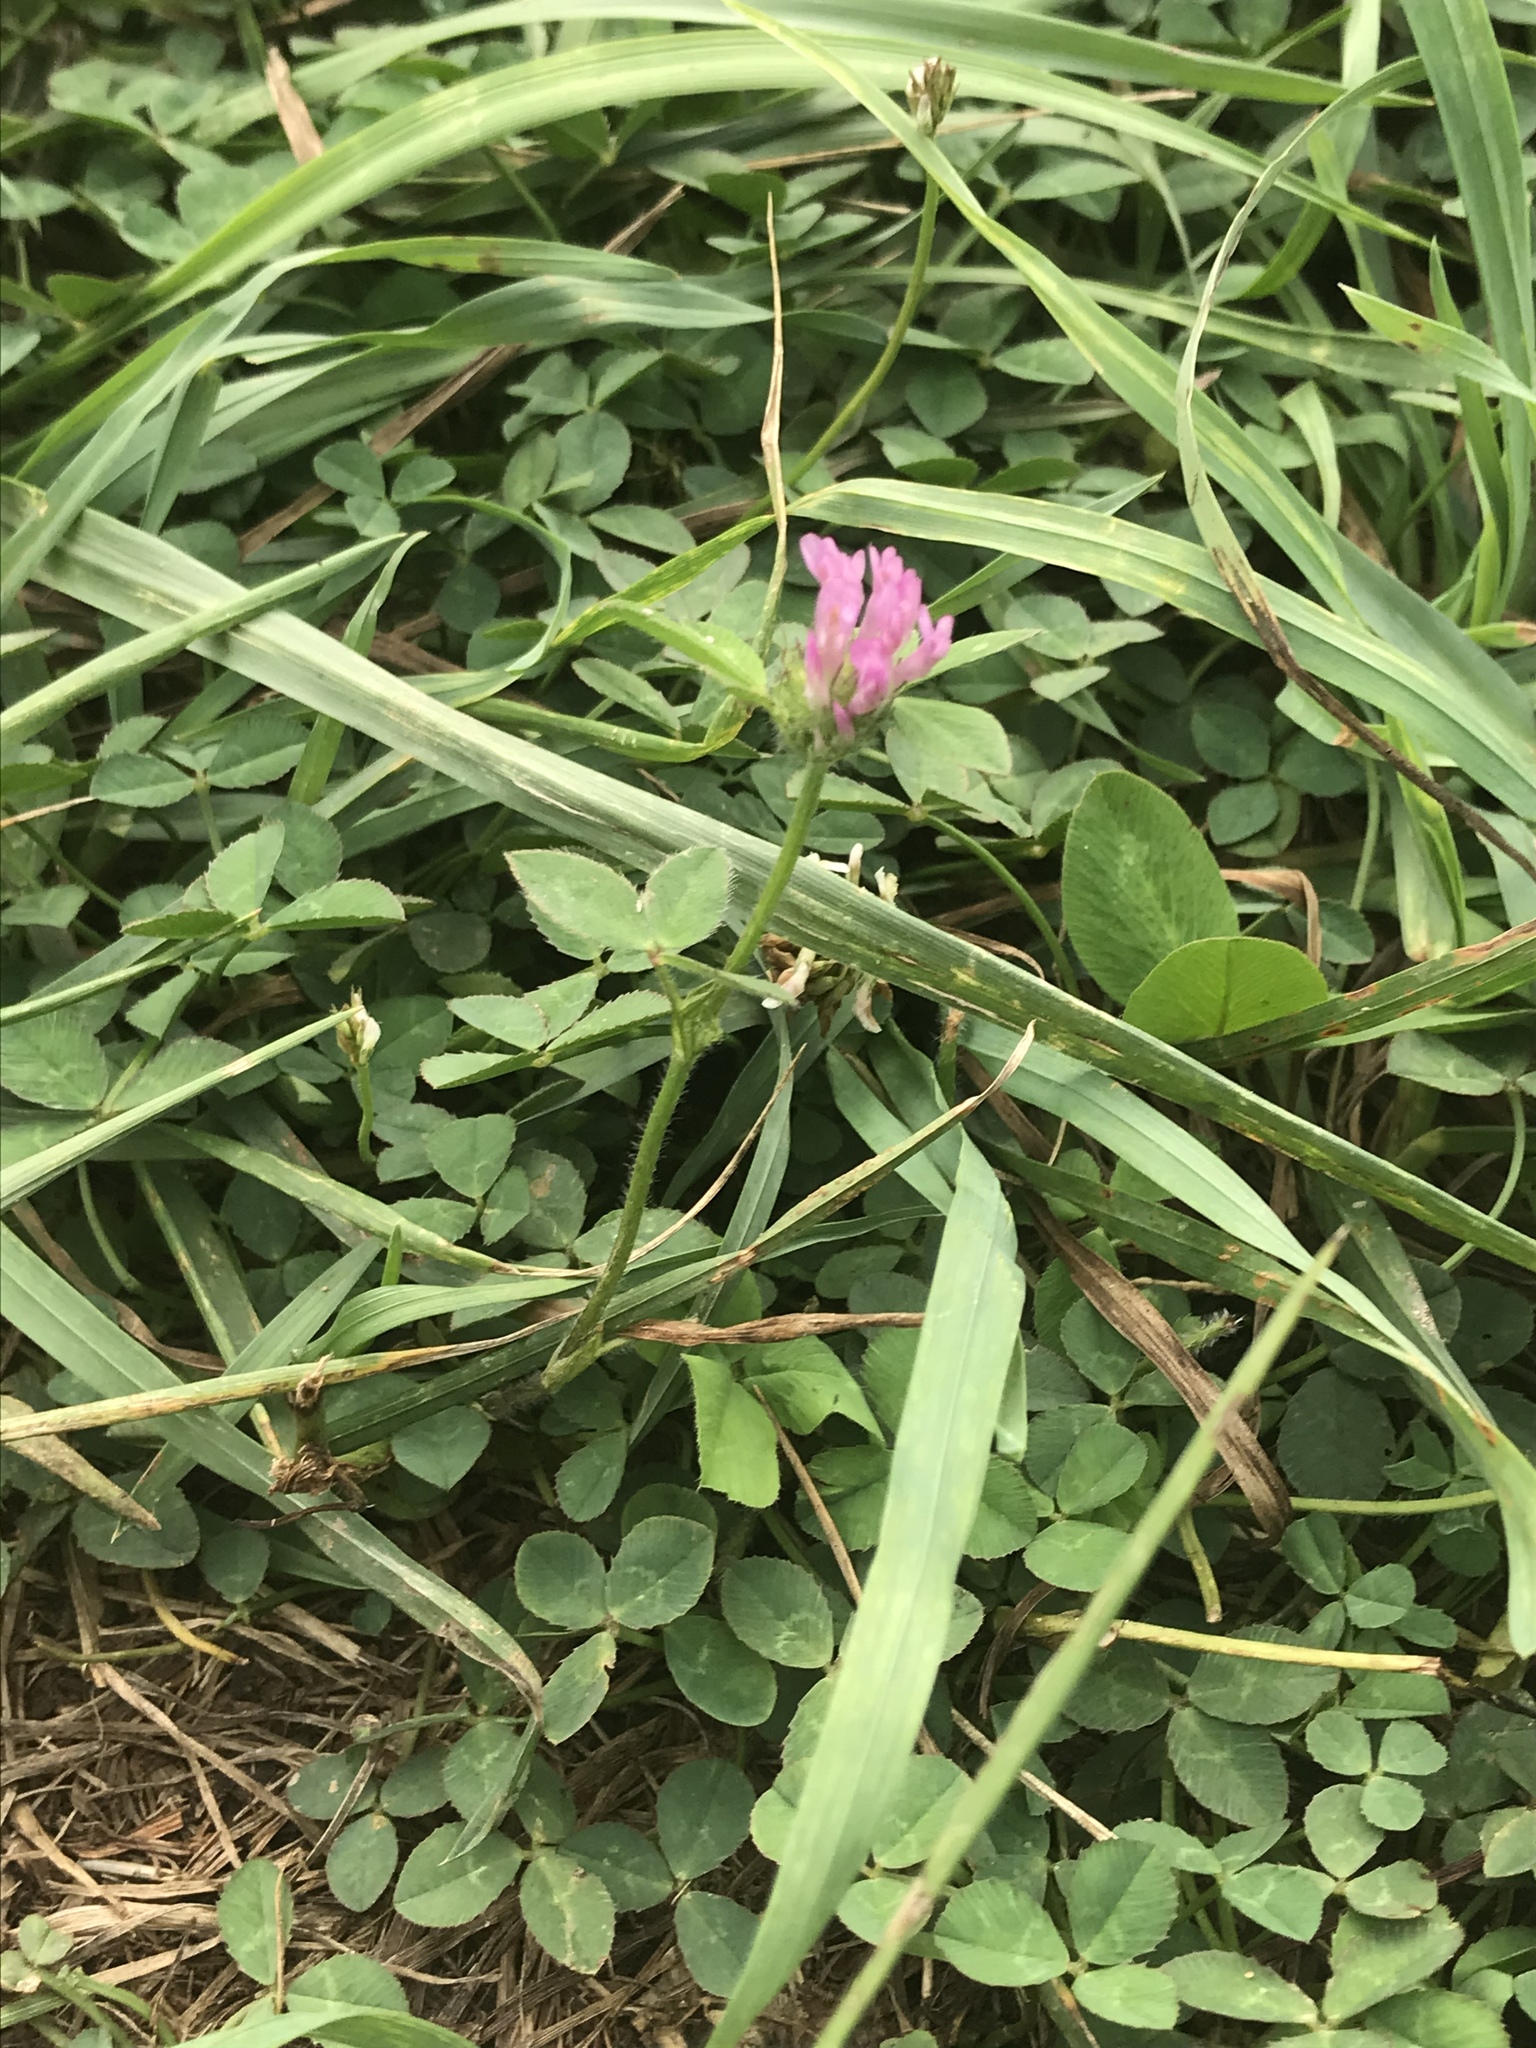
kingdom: Plantae
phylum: Tracheophyta
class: Magnoliopsida
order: Fabales
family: Fabaceae
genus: Trifolium
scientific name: Trifolium pratense
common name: Red clover
